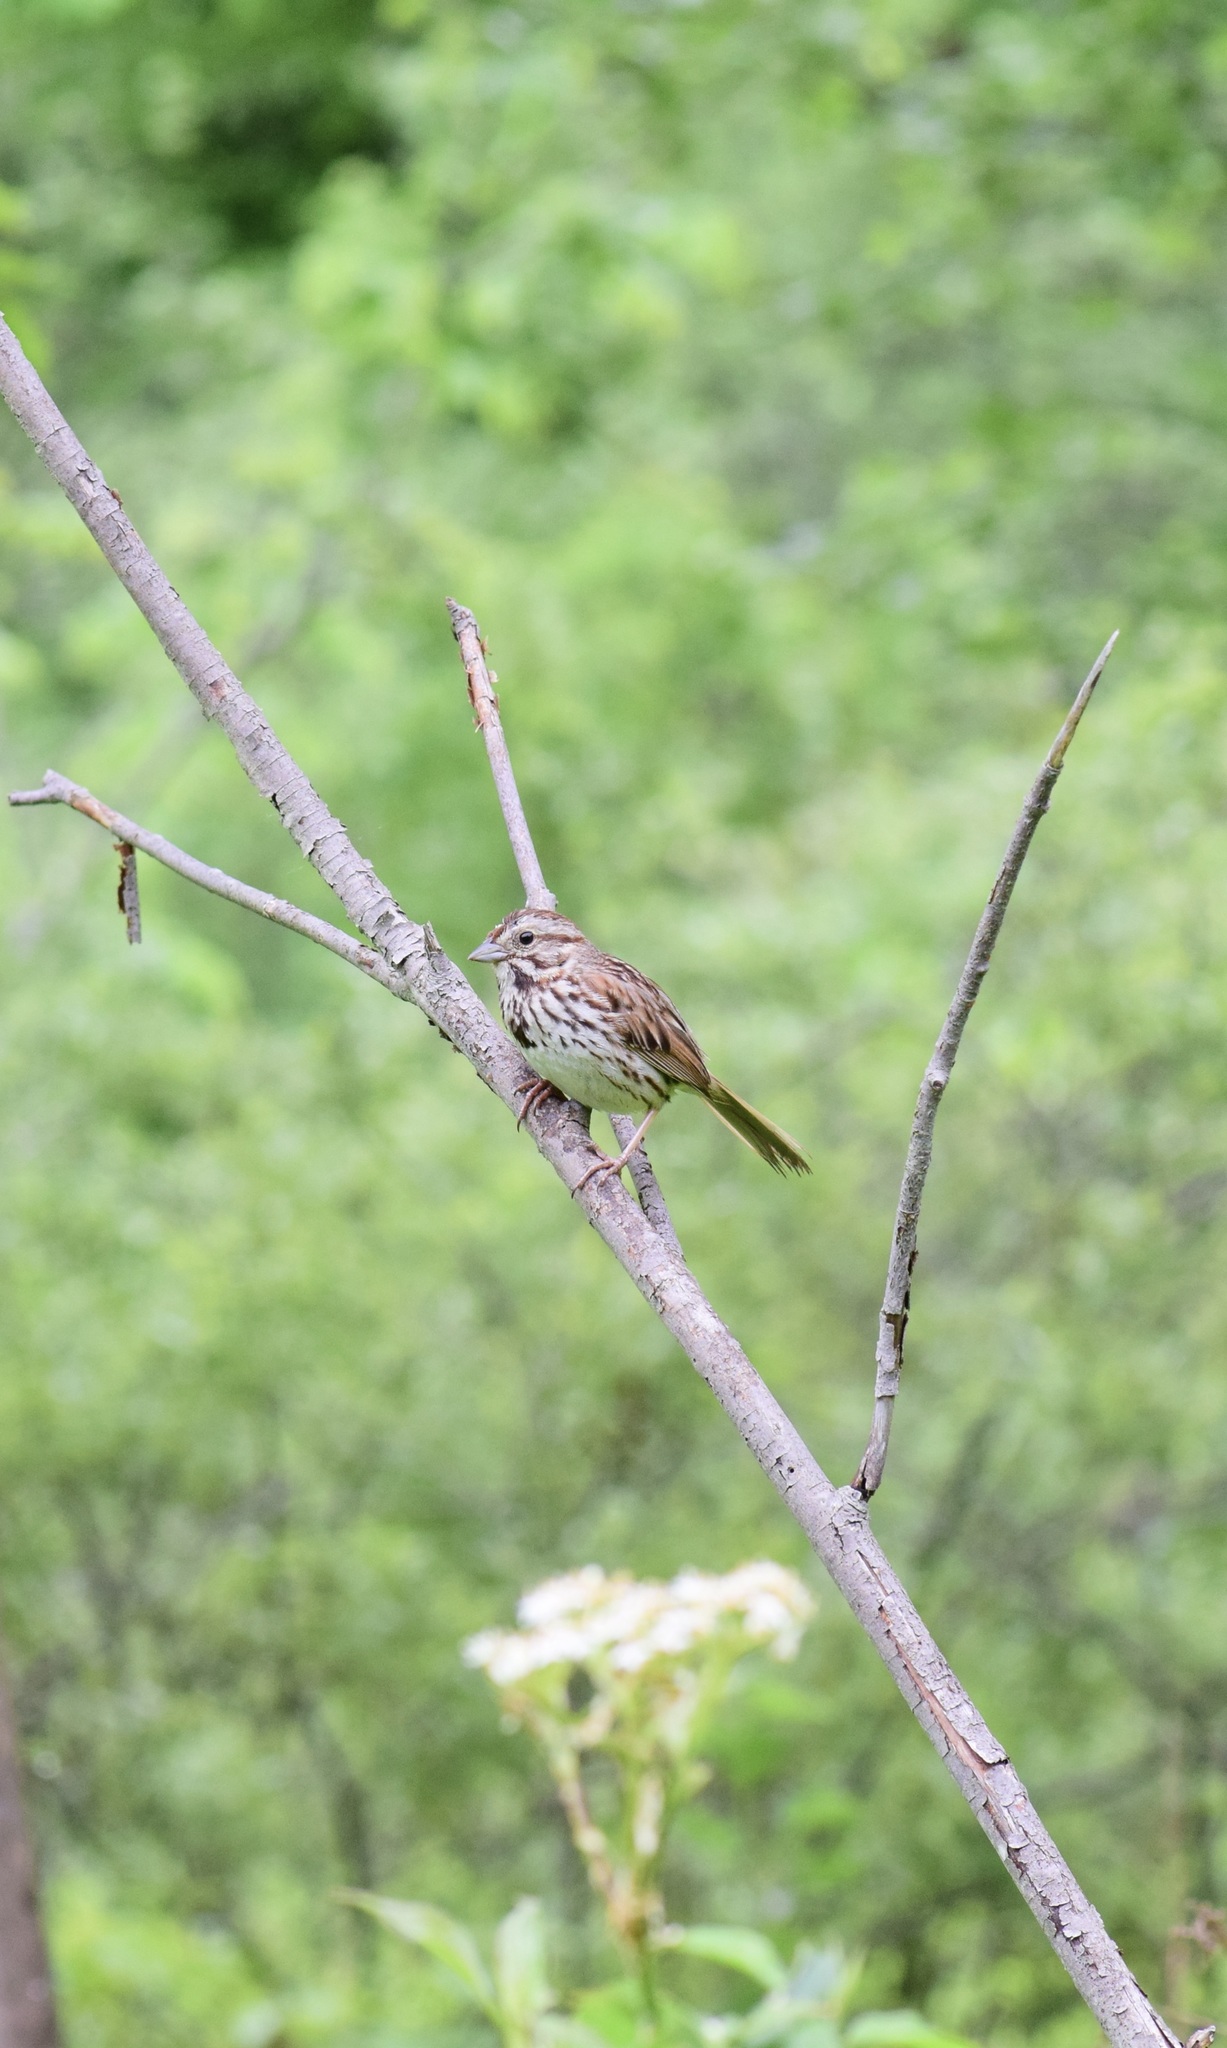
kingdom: Animalia
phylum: Chordata
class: Aves
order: Passeriformes
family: Passerellidae
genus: Melospiza
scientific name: Melospiza melodia
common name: Song sparrow
